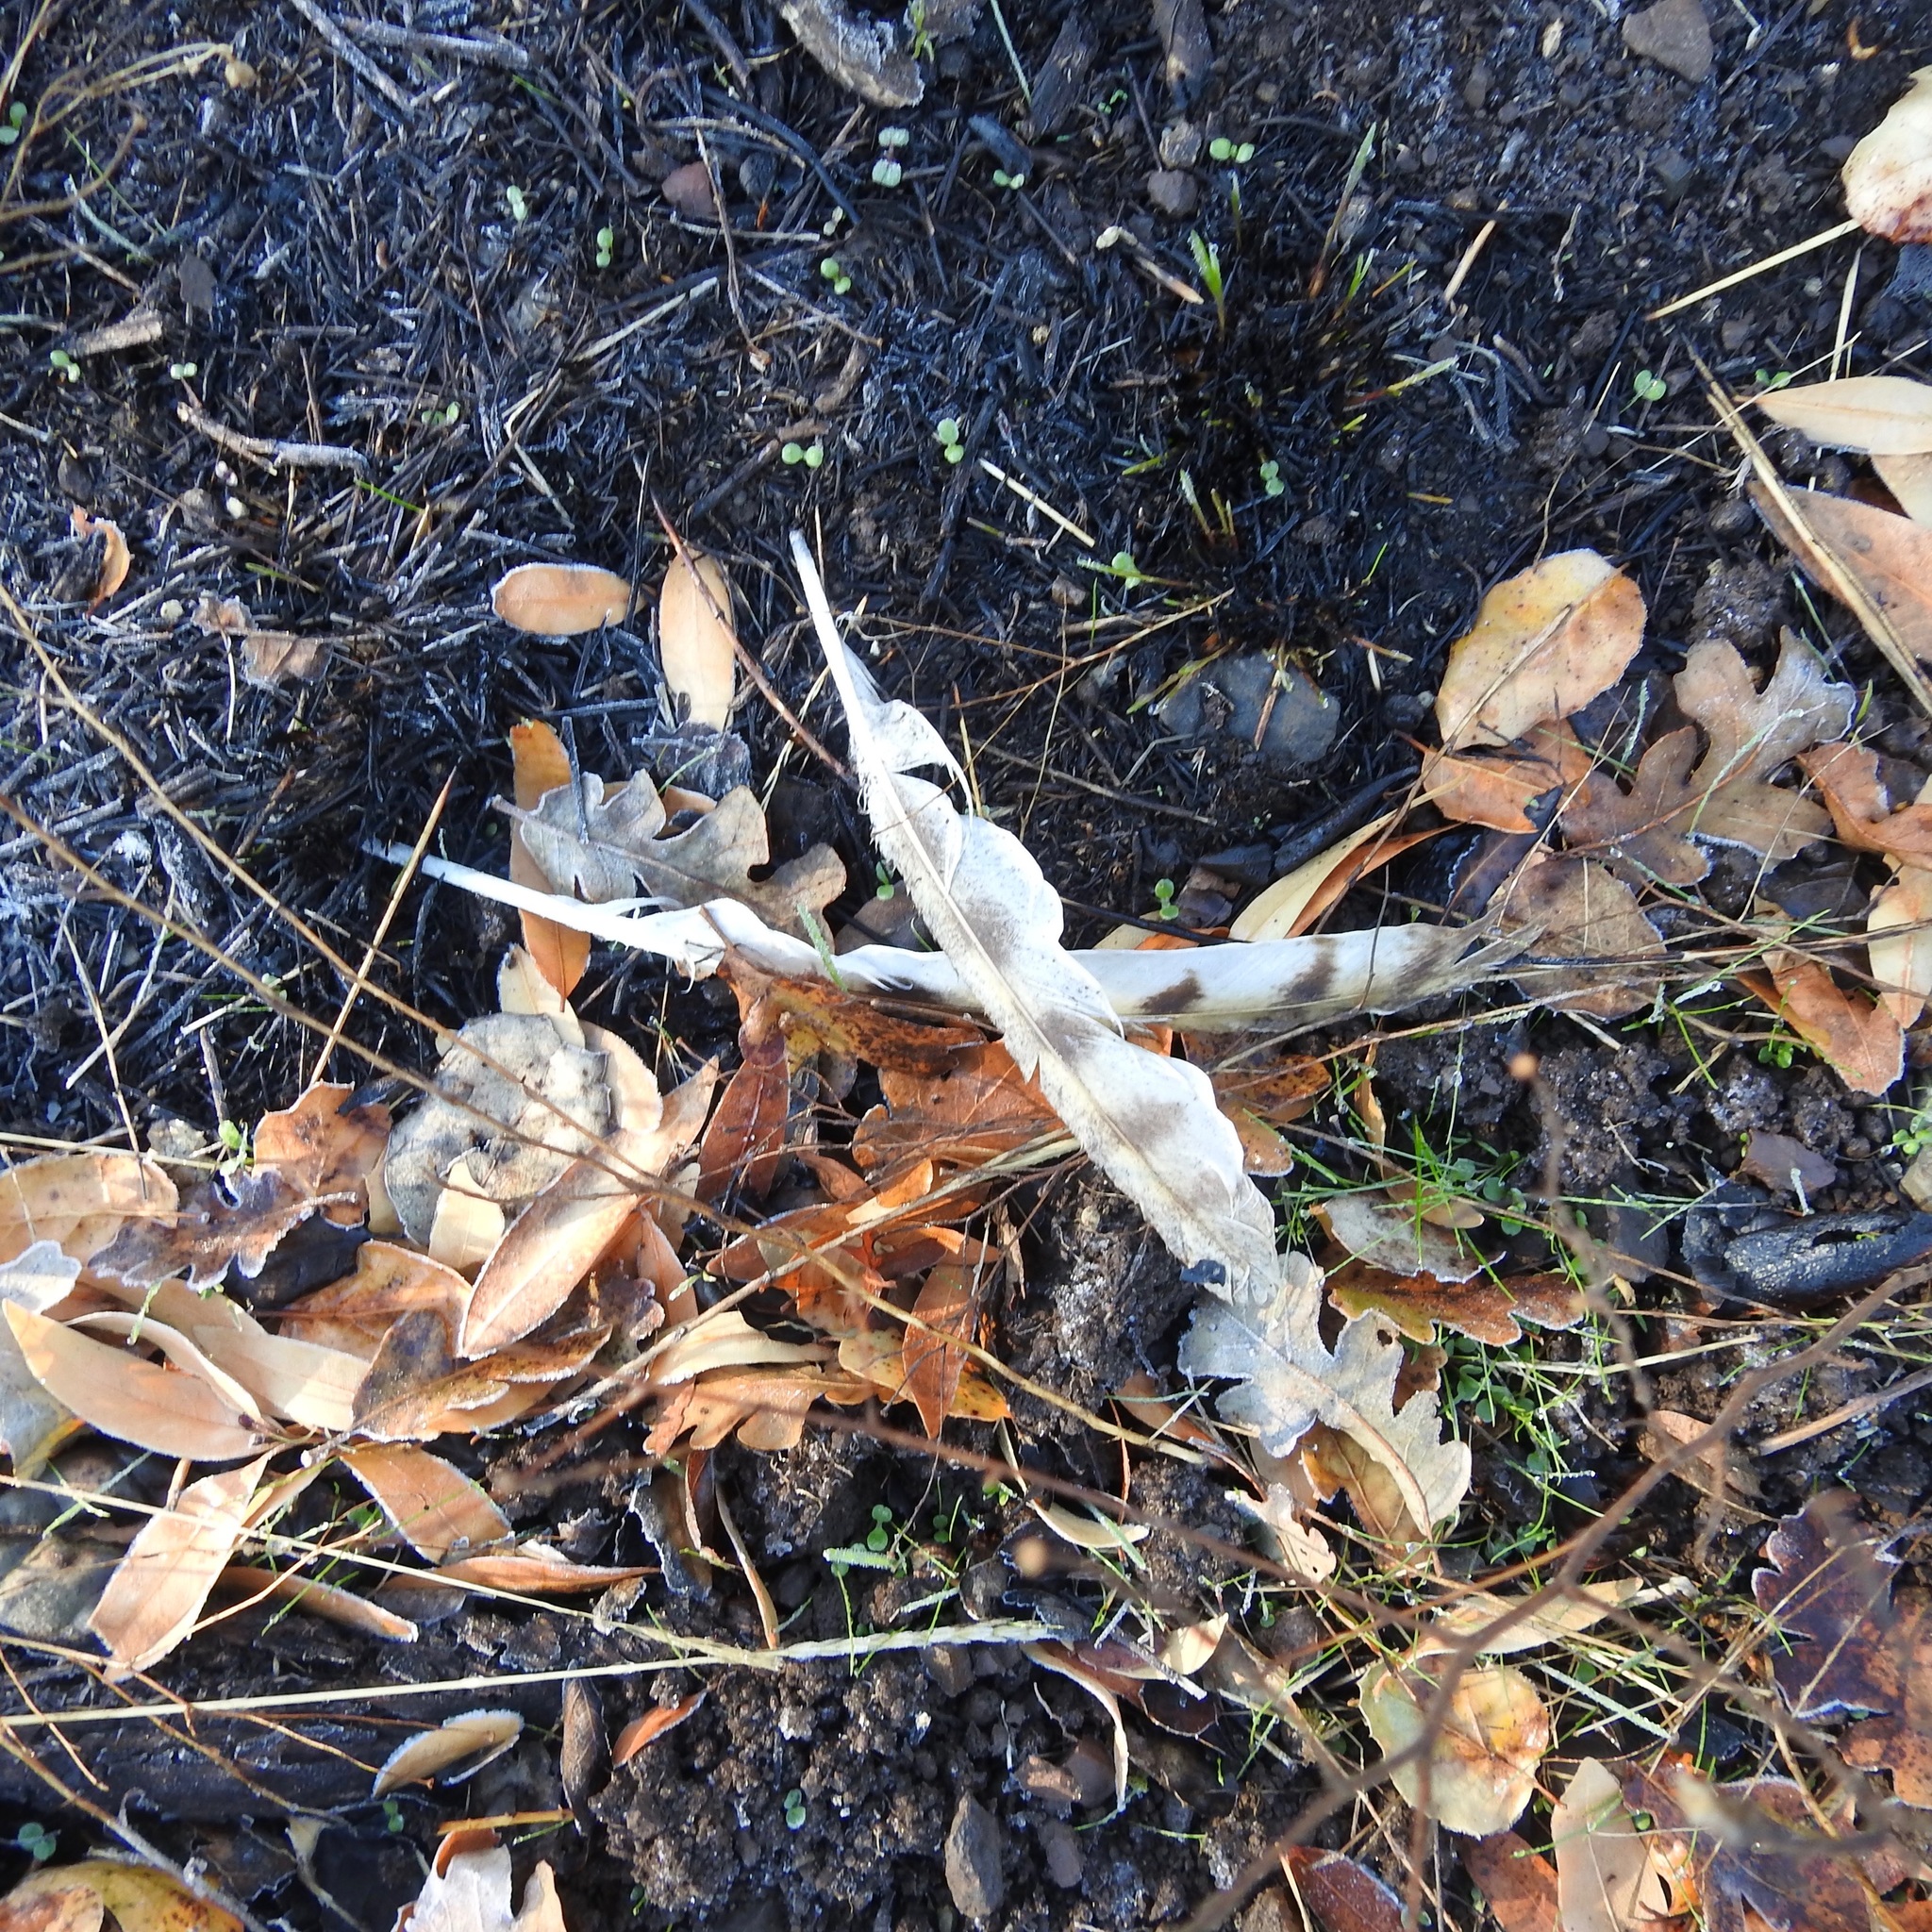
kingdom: Animalia
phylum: Chordata
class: Aves
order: Strigiformes
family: Tytonidae
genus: Tyto
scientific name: Tyto alba
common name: Barn owl
